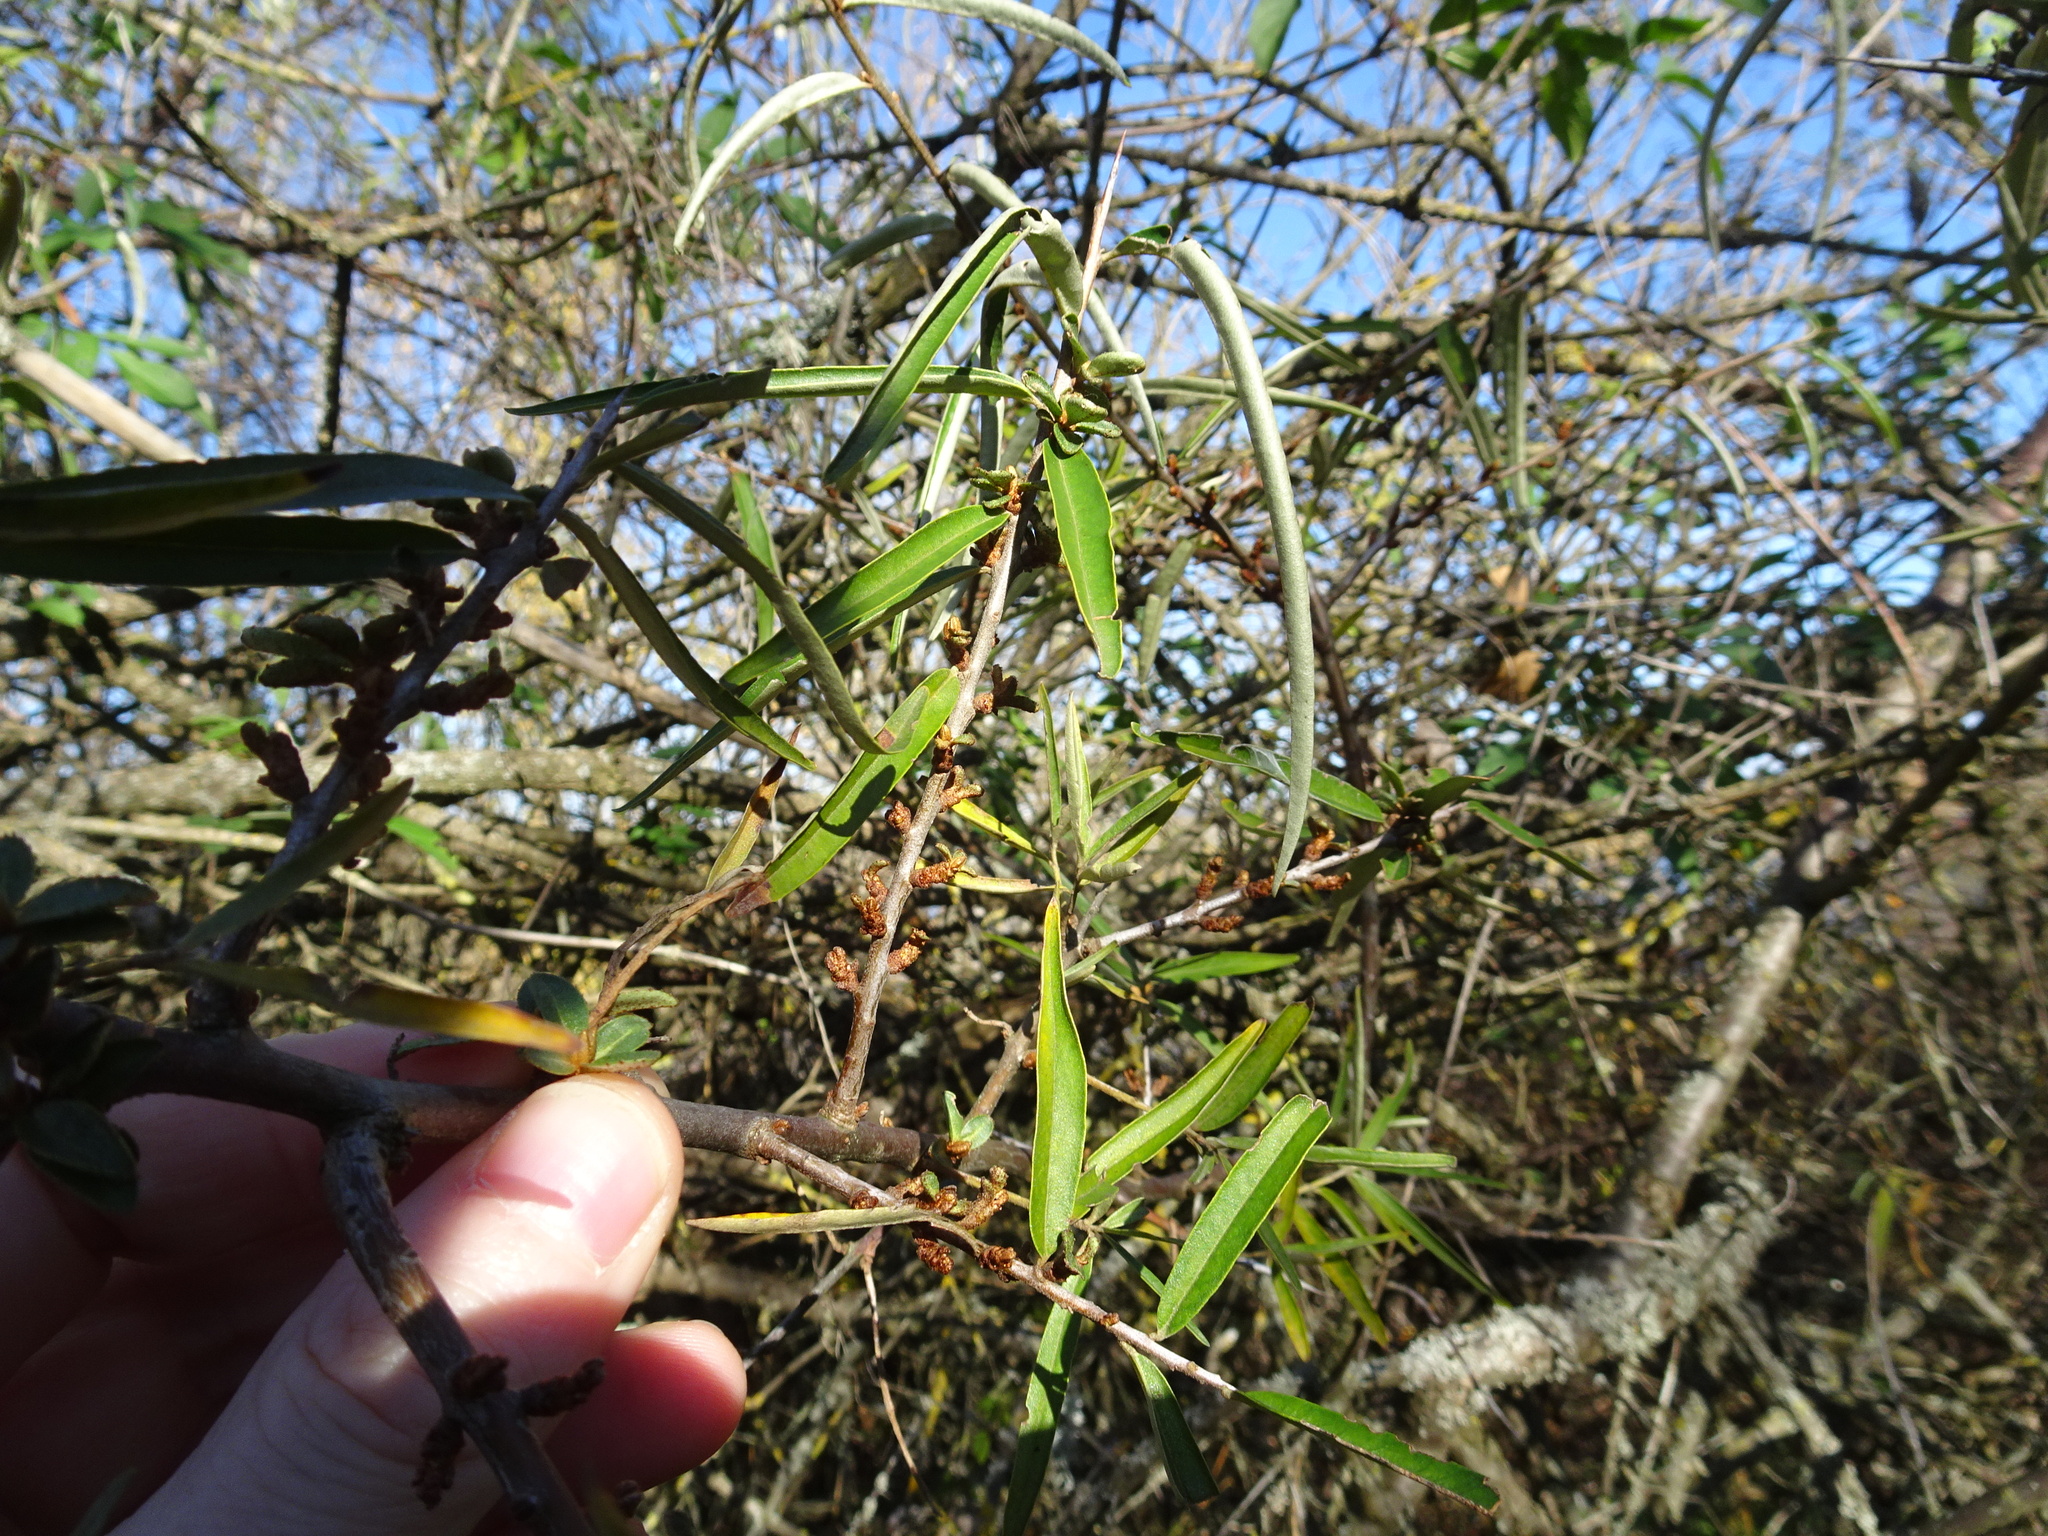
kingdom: Plantae
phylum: Tracheophyta
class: Magnoliopsida
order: Rosales
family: Elaeagnaceae
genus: Hippophae
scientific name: Hippophae rhamnoides
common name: Sea-buckthorn
